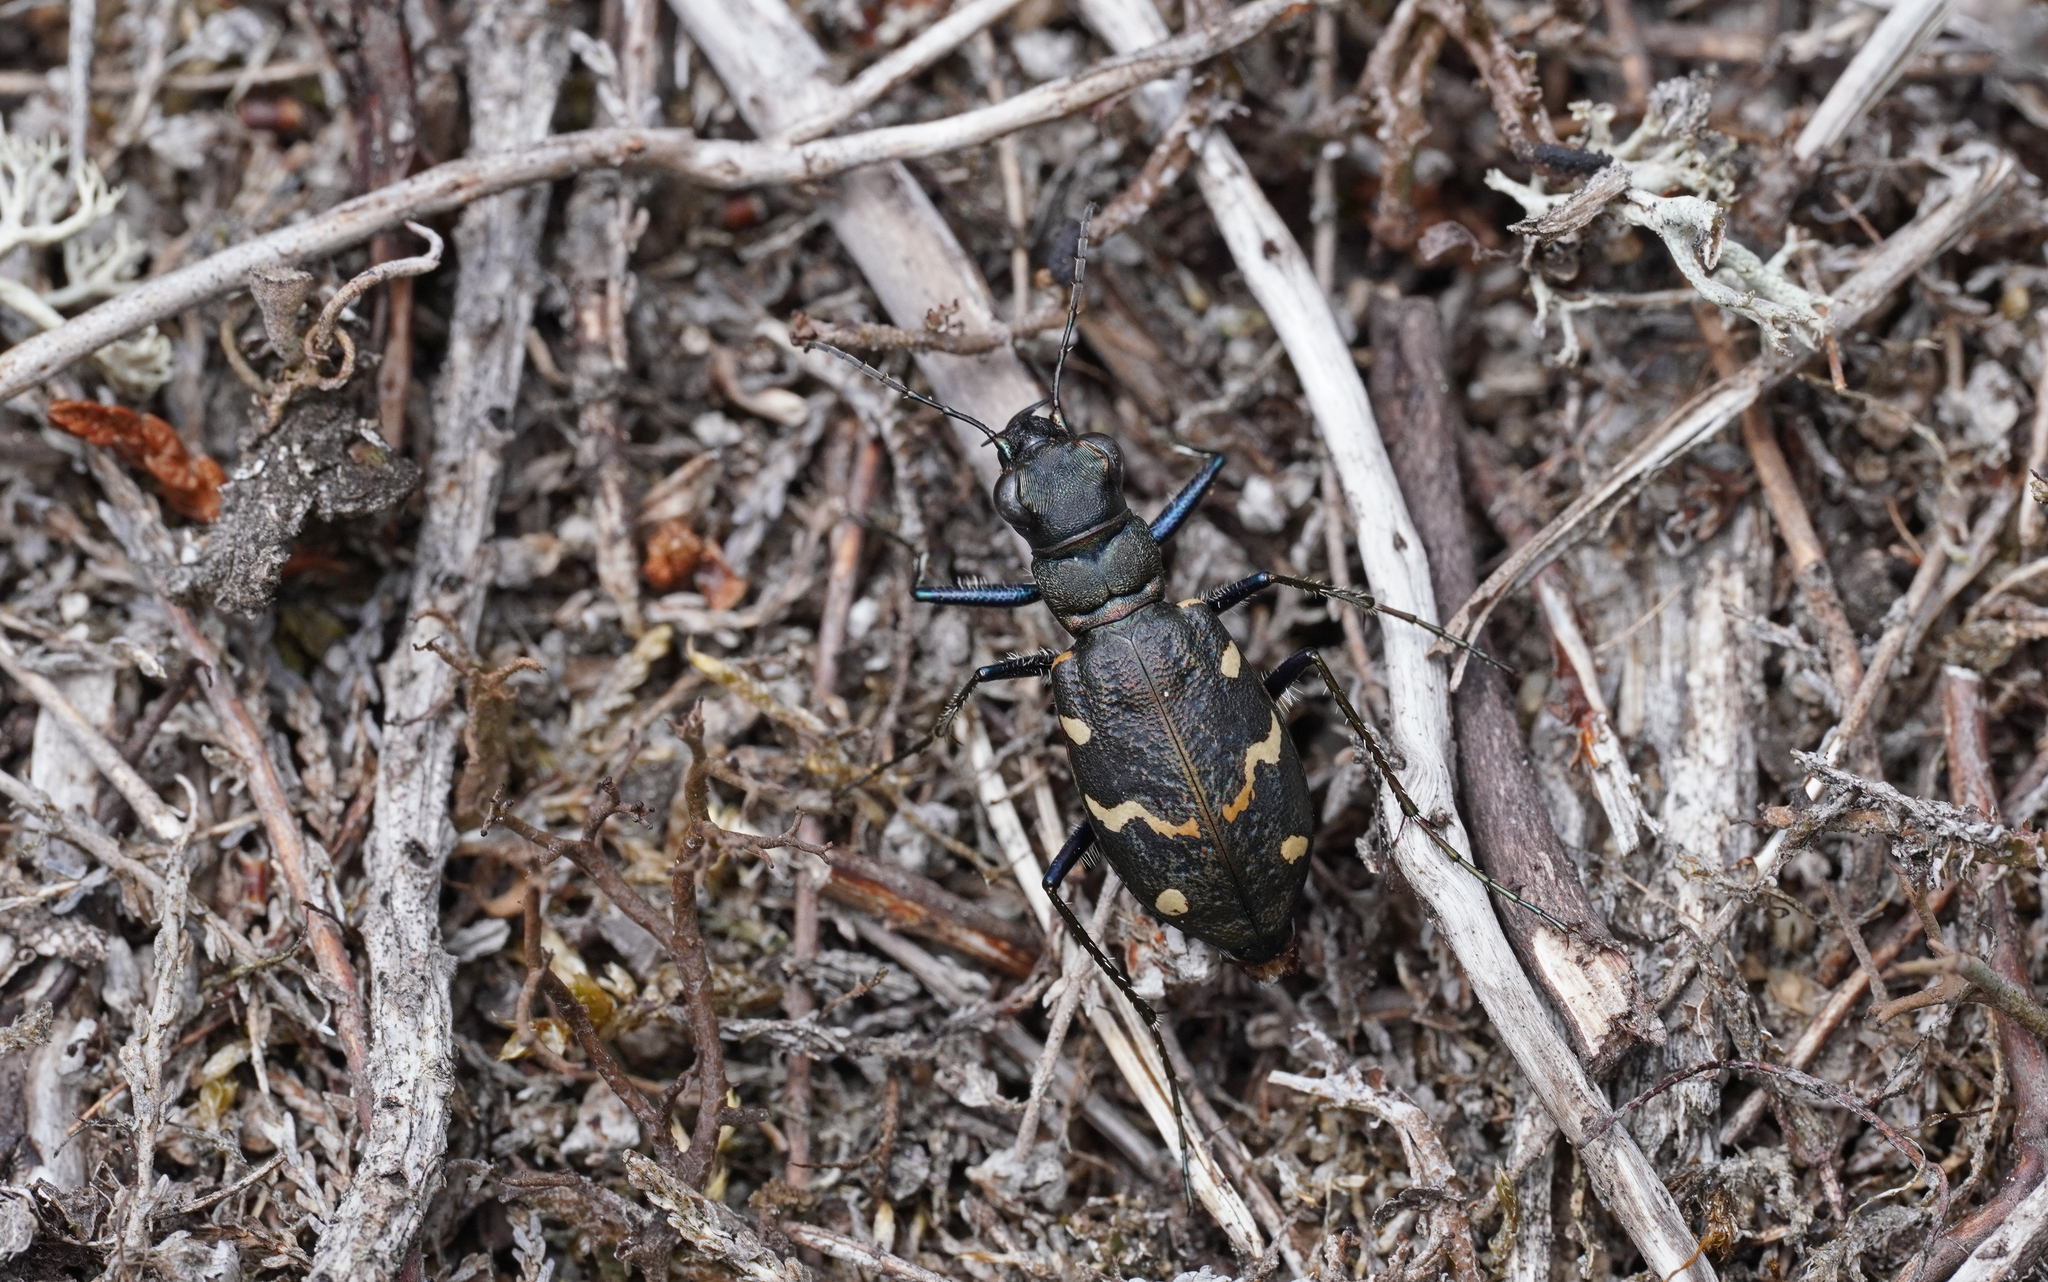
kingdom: Animalia
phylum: Arthropoda
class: Insecta
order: Coleoptera
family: Carabidae
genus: Cicindela
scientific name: Cicindela sylvatica
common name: Heath tiger beetle
